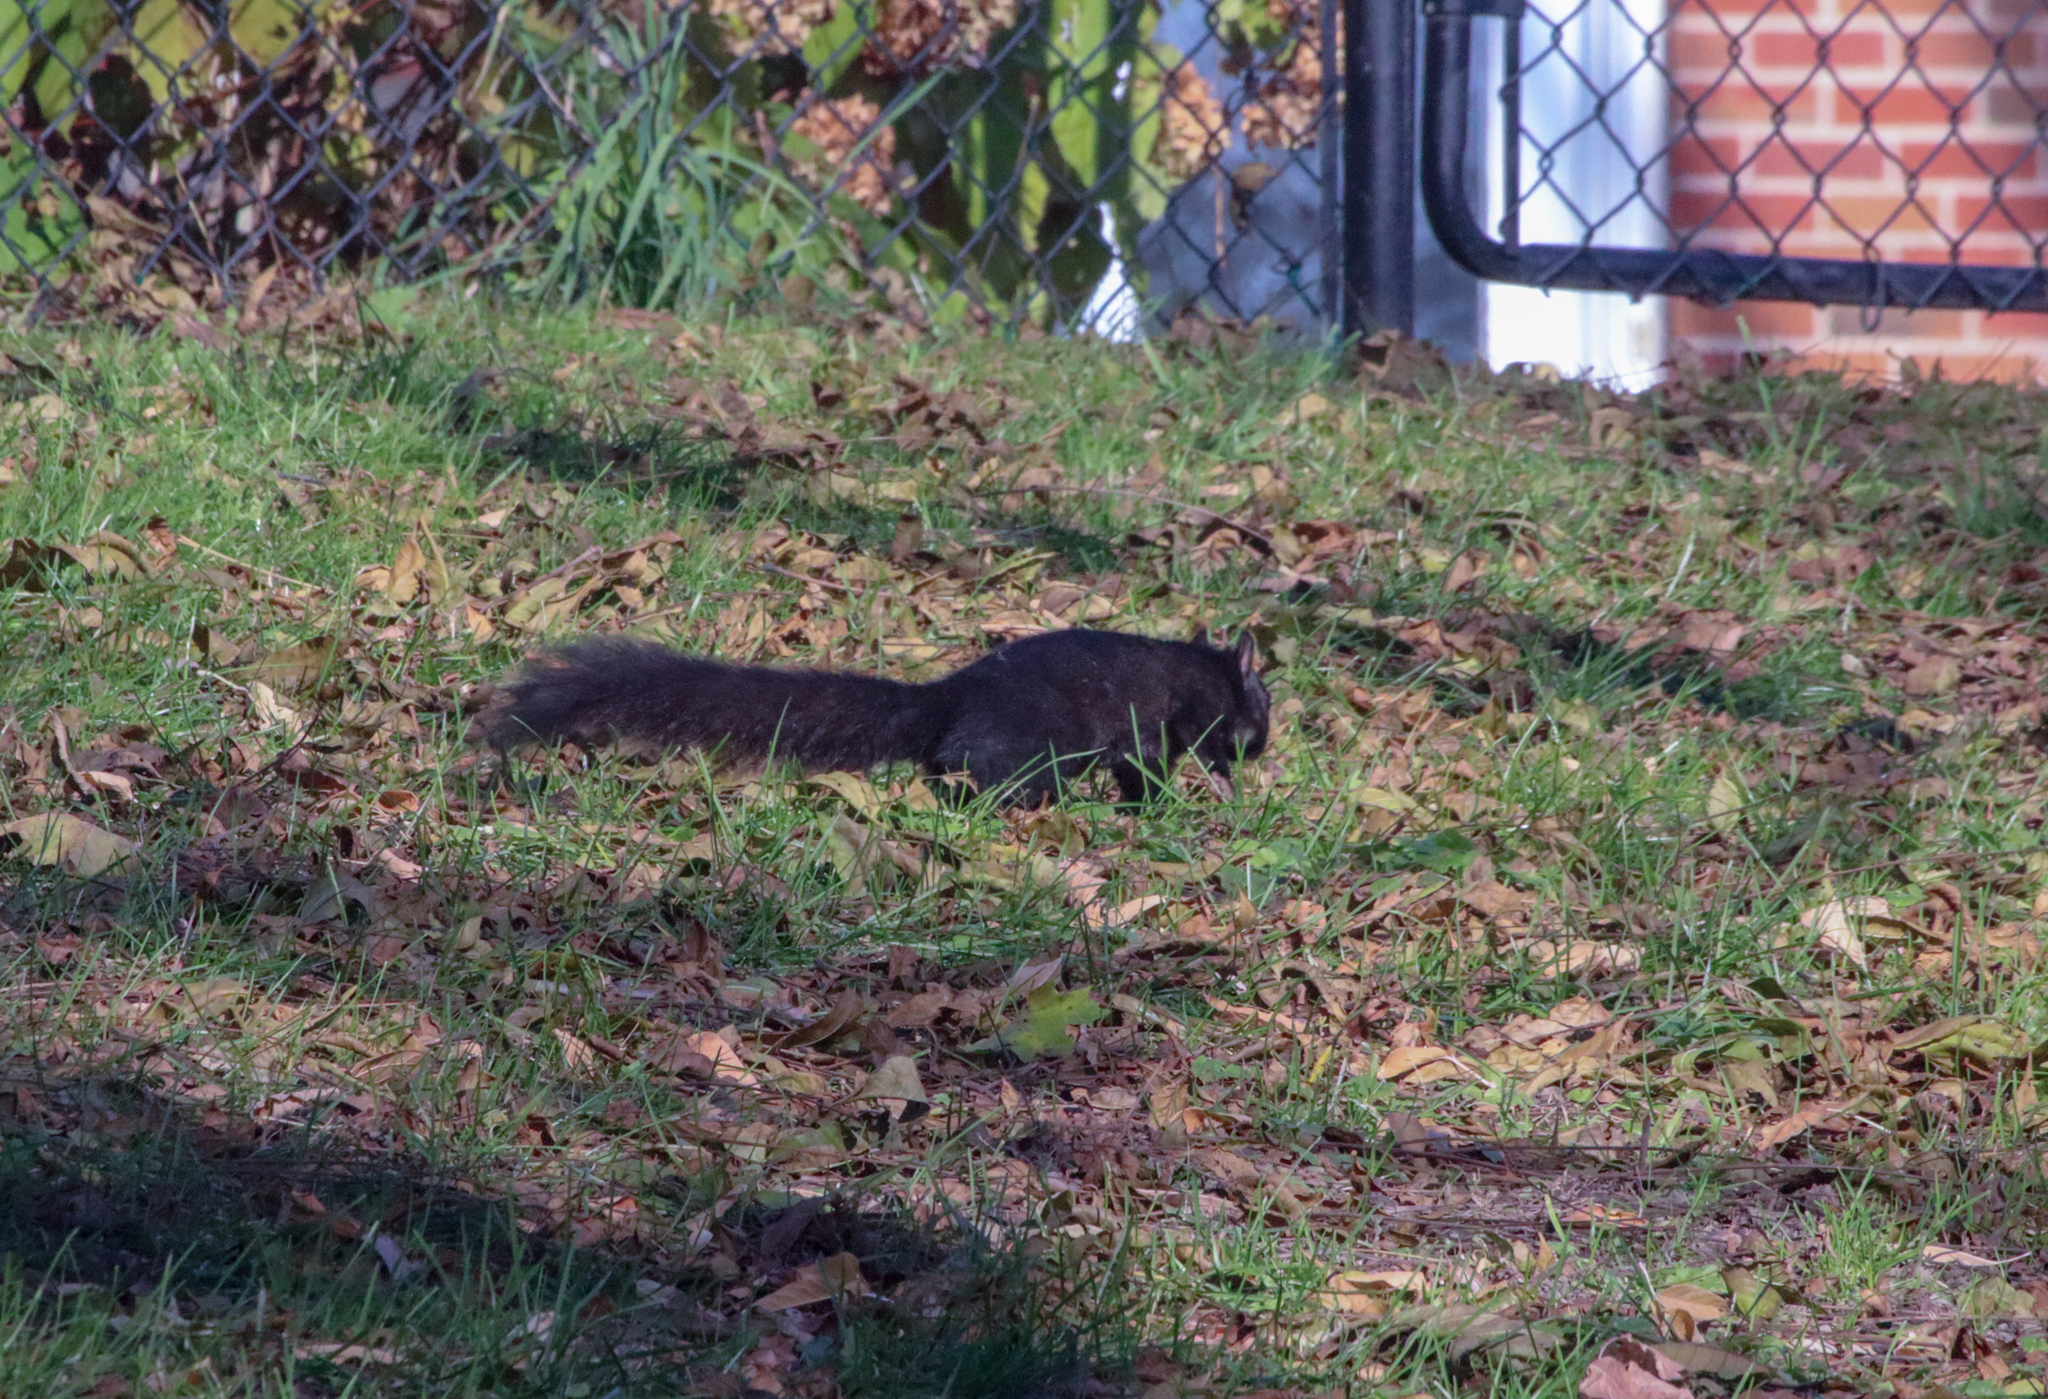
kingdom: Animalia
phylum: Chordata
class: Mammalia
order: Rodentia
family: Sciuridae
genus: Sciurus
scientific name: Sciurus carolinensis
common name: Eastern gray squirrel
